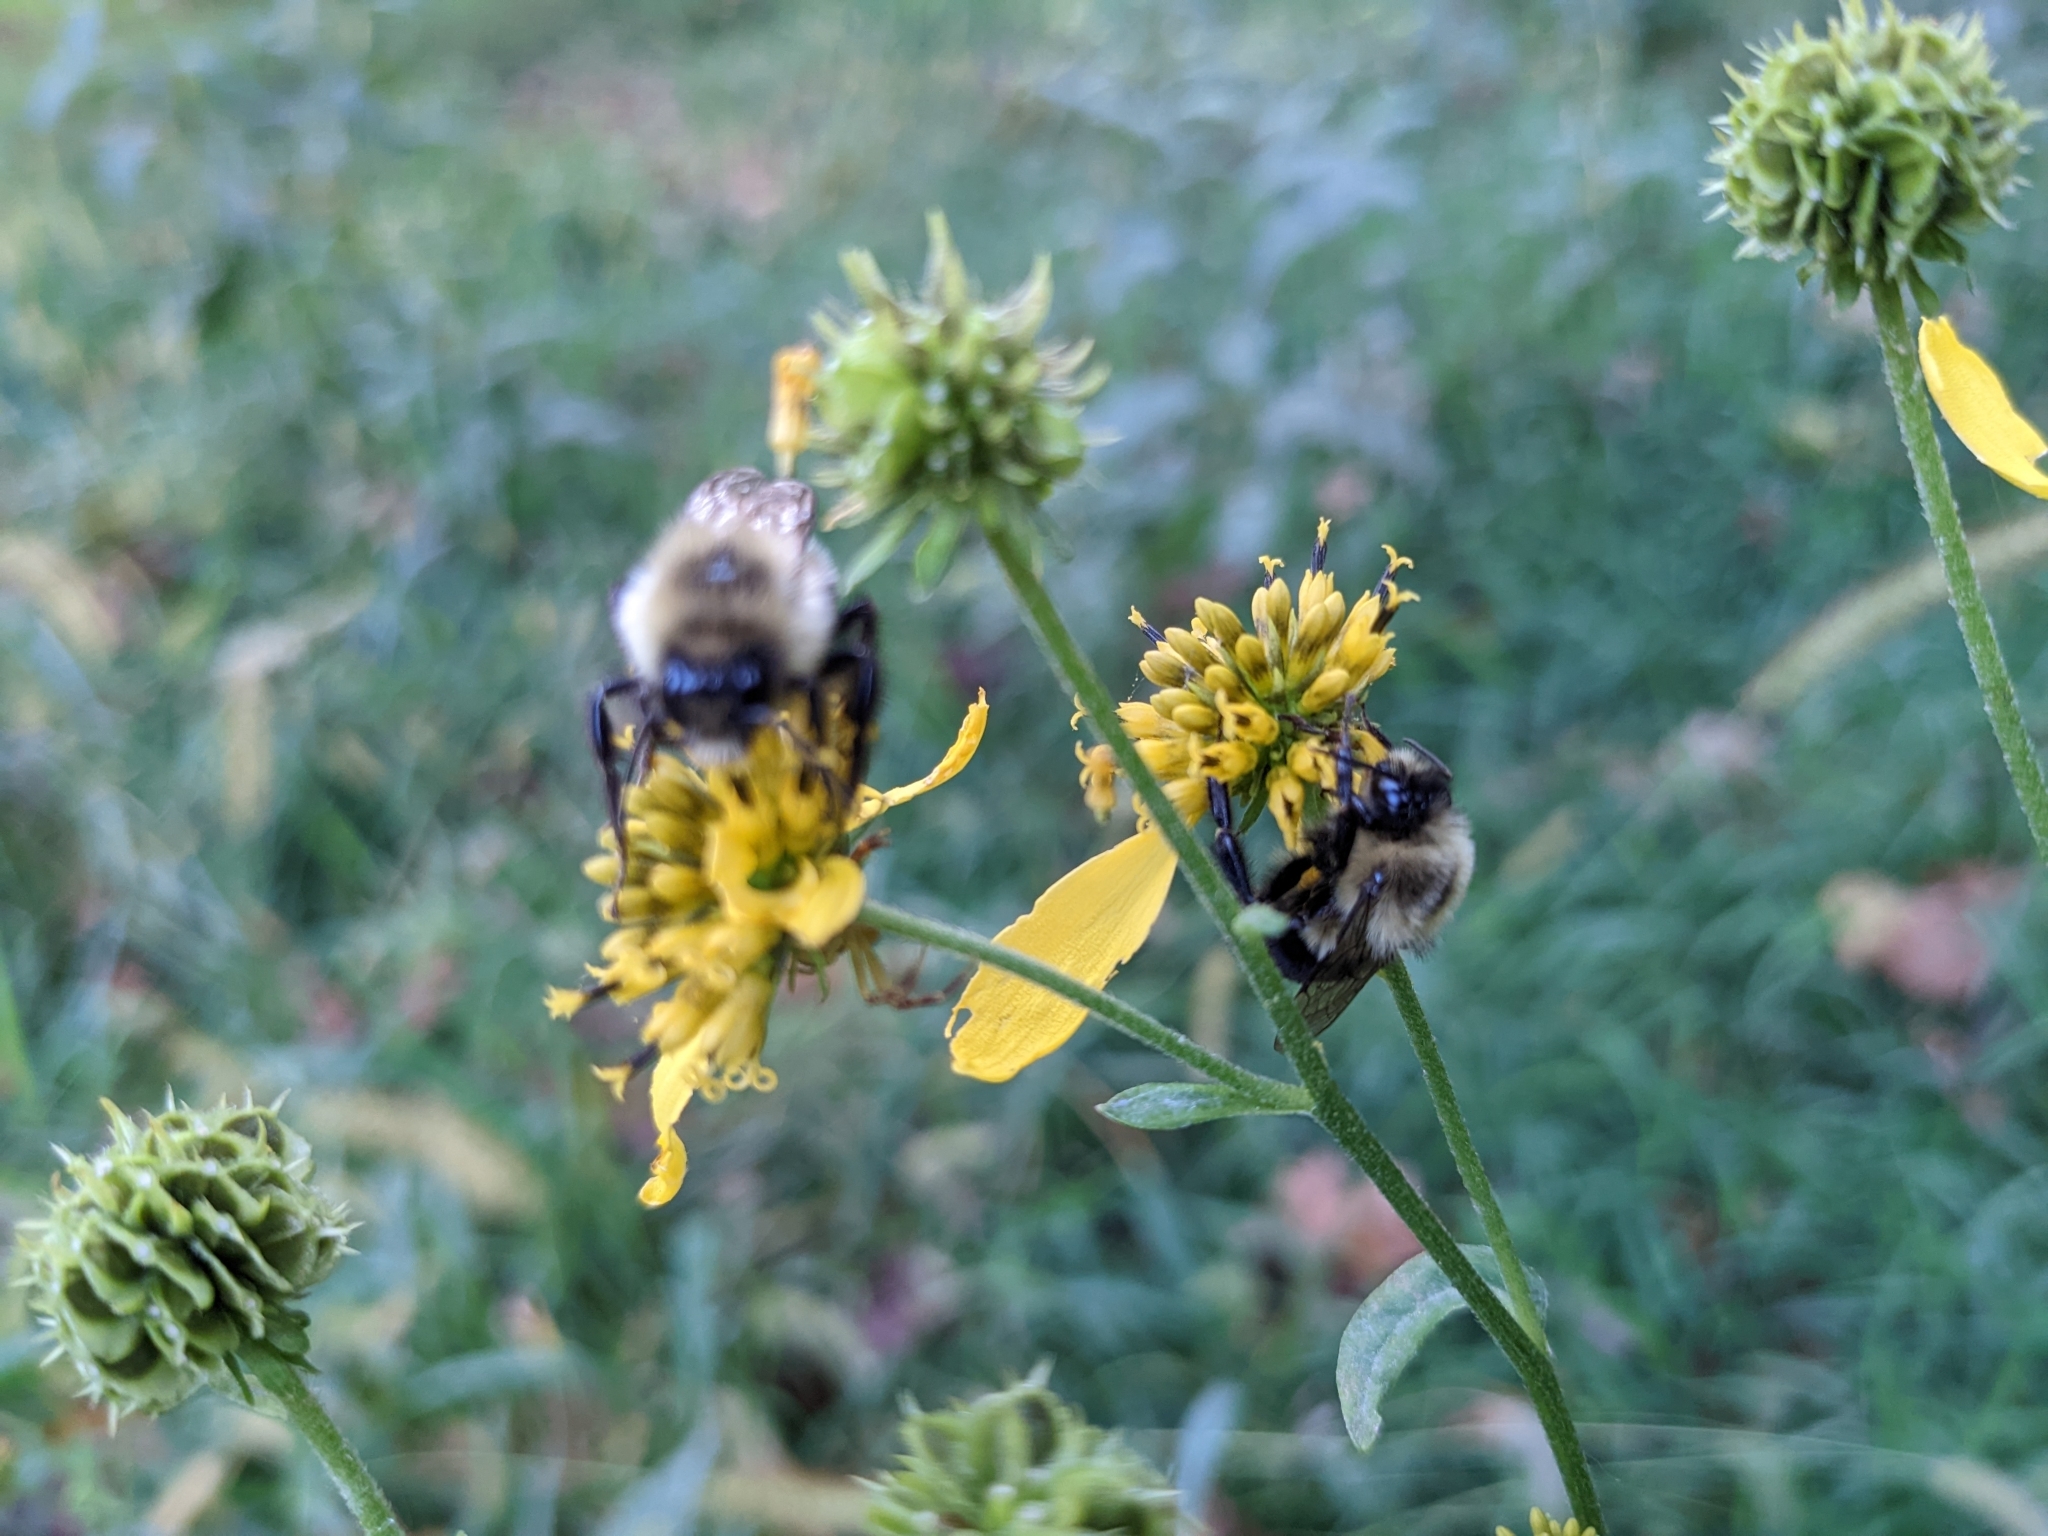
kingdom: Animalia
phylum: Arthropoda
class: Insecta
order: Hymenoptera
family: Apidae
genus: Bombus
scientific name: Bombus impatiens
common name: Common eastern bumble bee
